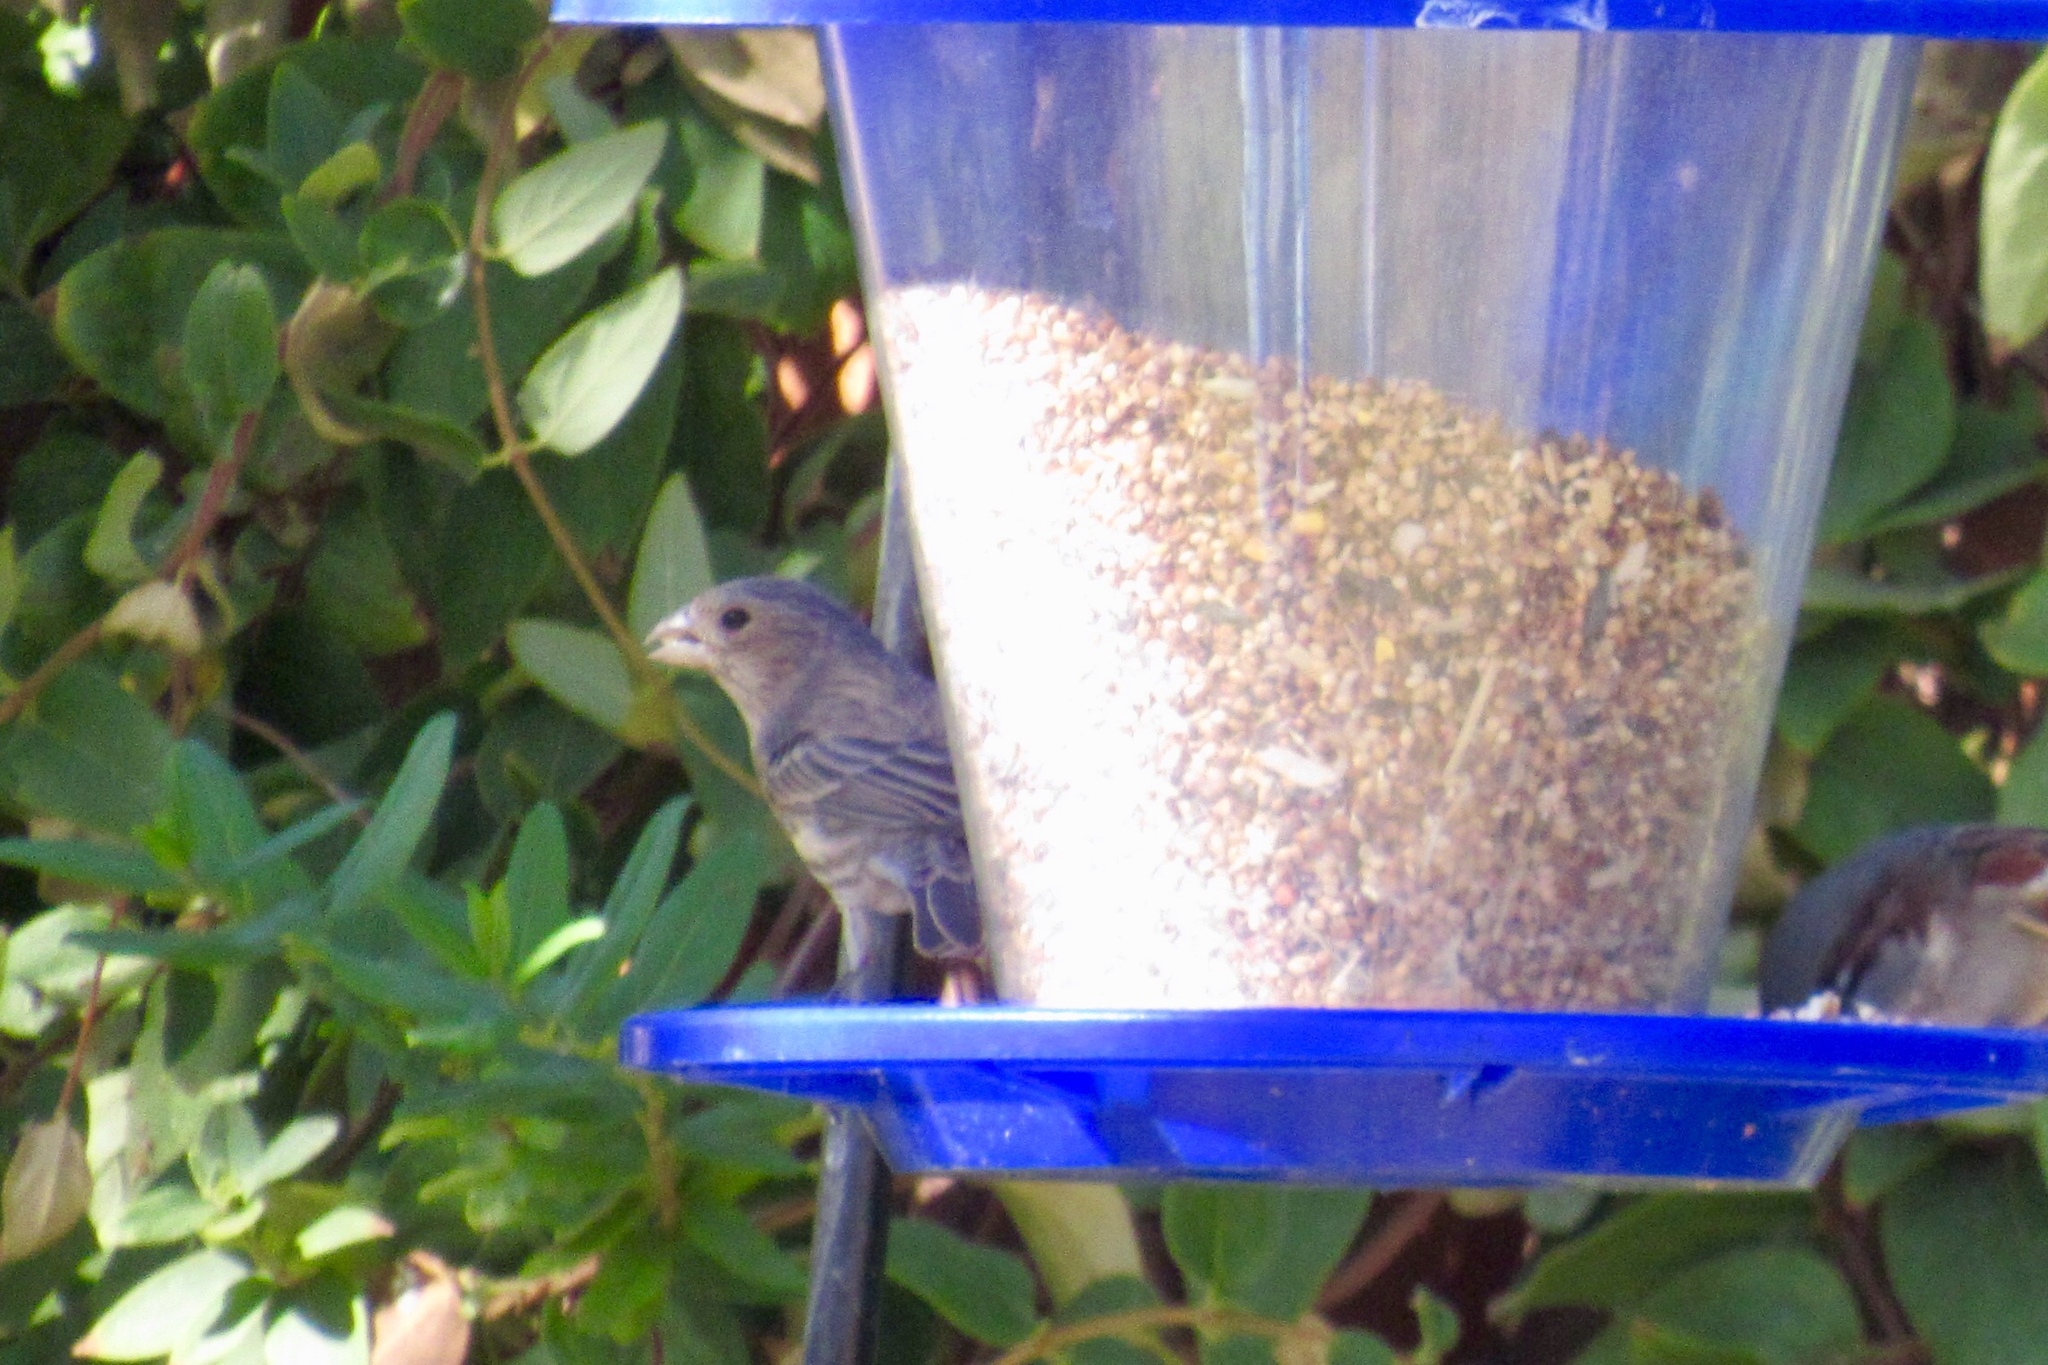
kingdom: Animalia
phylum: Chordata
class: Aves
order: Passeriformes
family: Fringillidae
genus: Haemorhous
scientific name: Haemorhous mexicanus
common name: House finch
